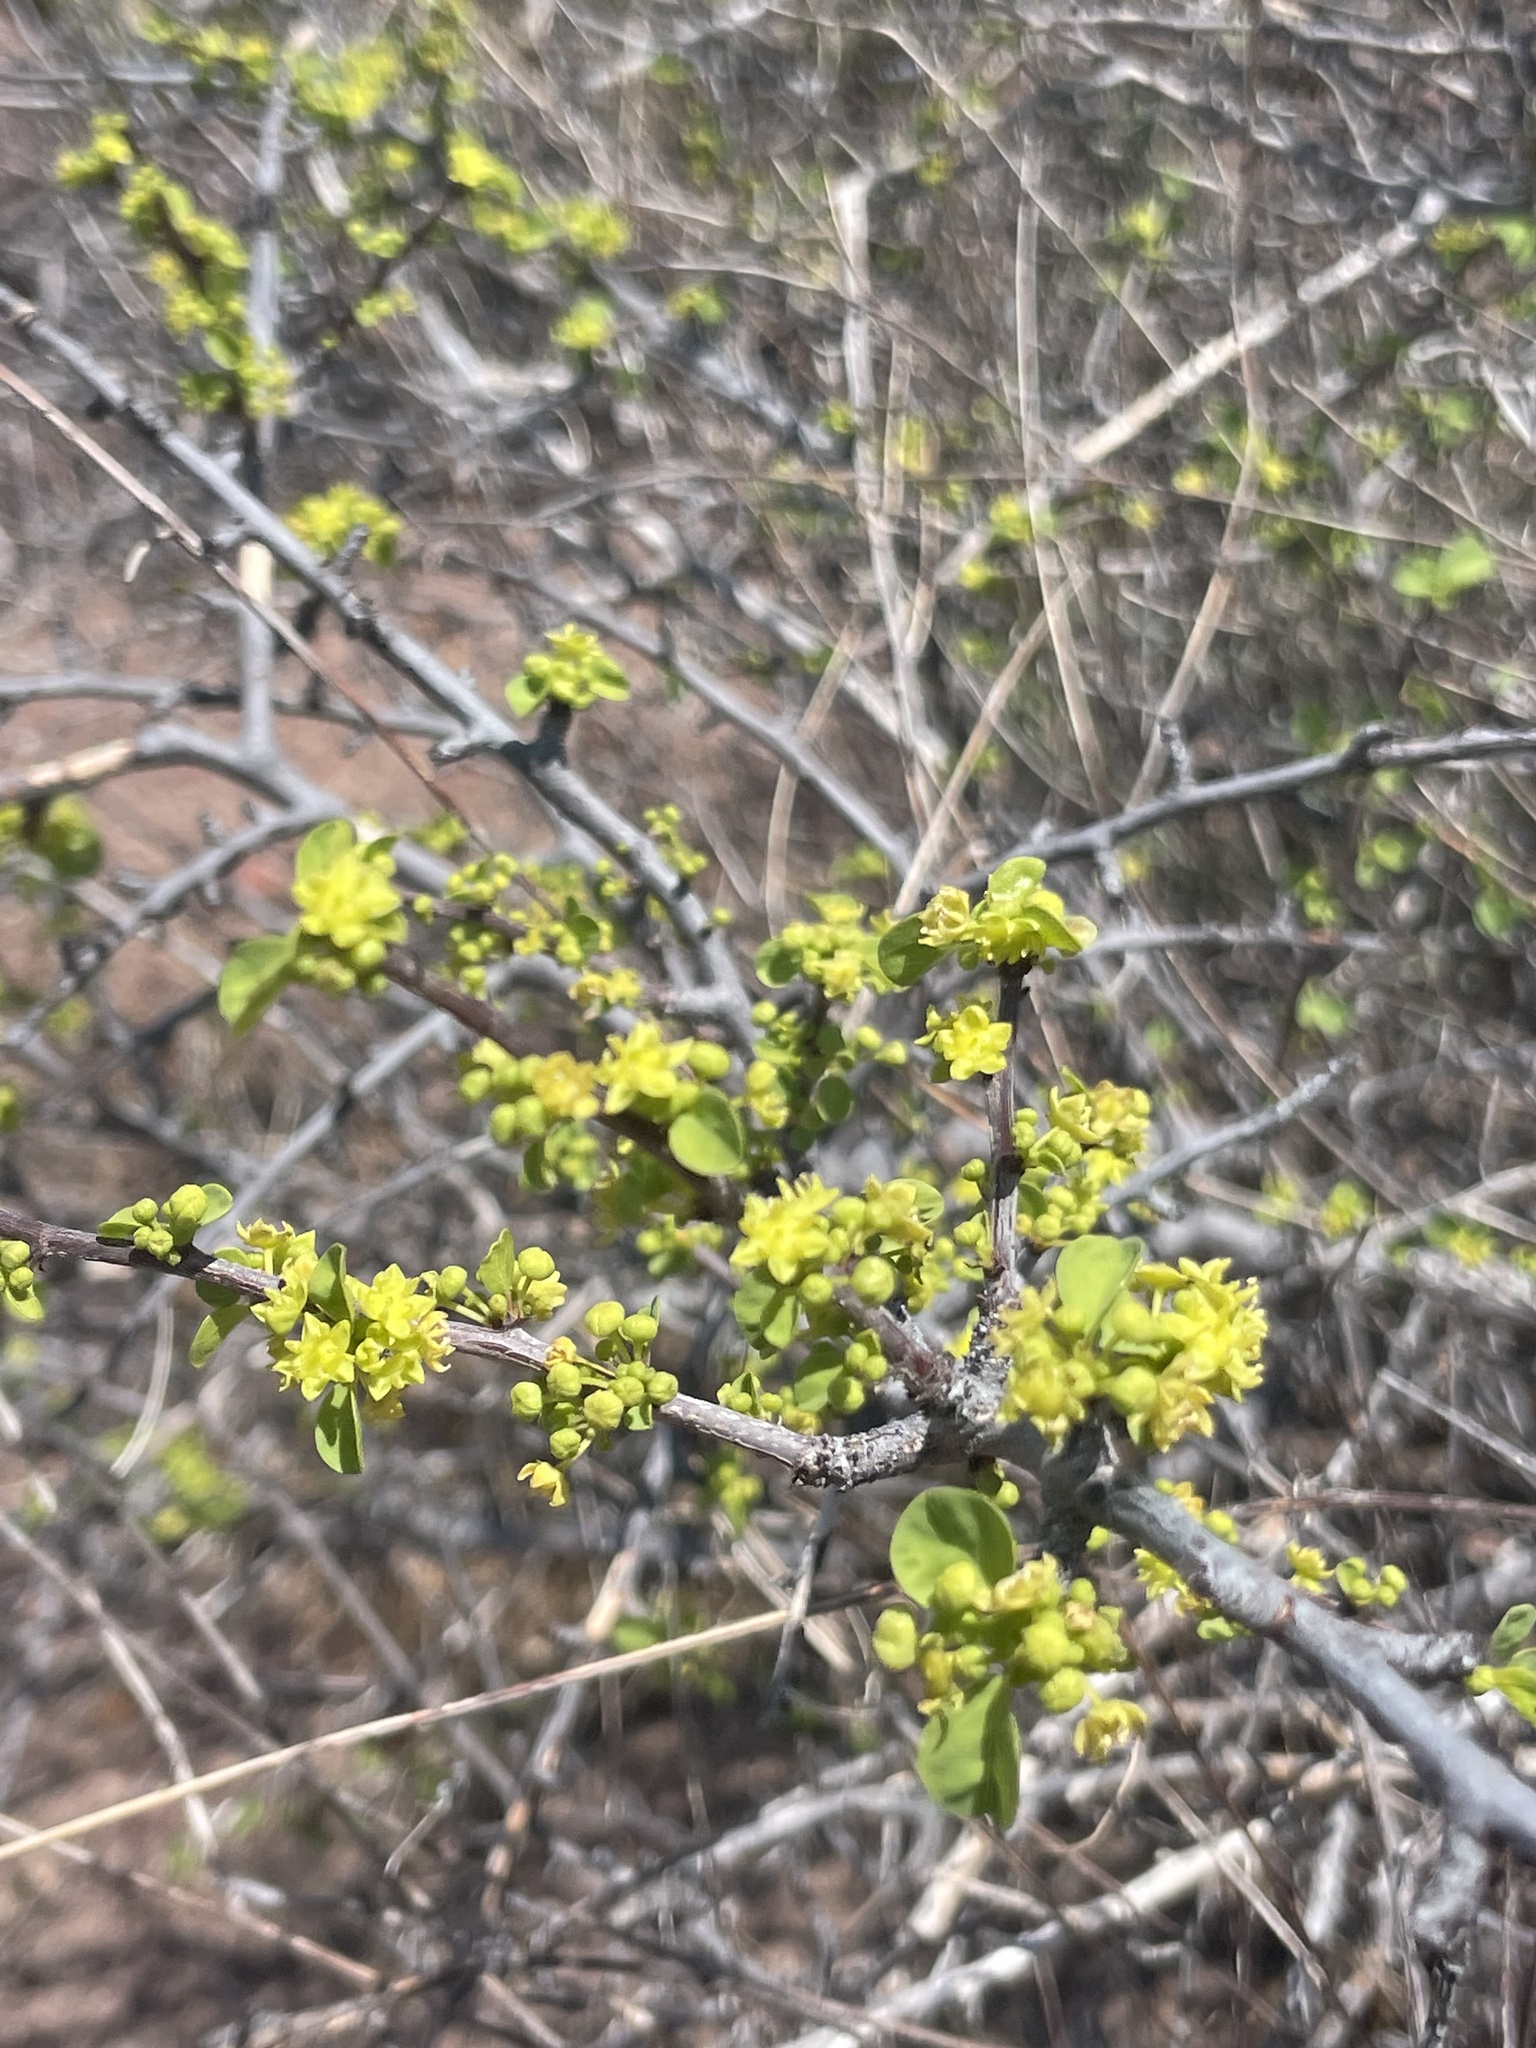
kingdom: Plantae
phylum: Tracheophyta
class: Magnoliopsida
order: Rosales
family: Rhamnaceae
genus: Colubrina
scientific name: Colubrina viridis
